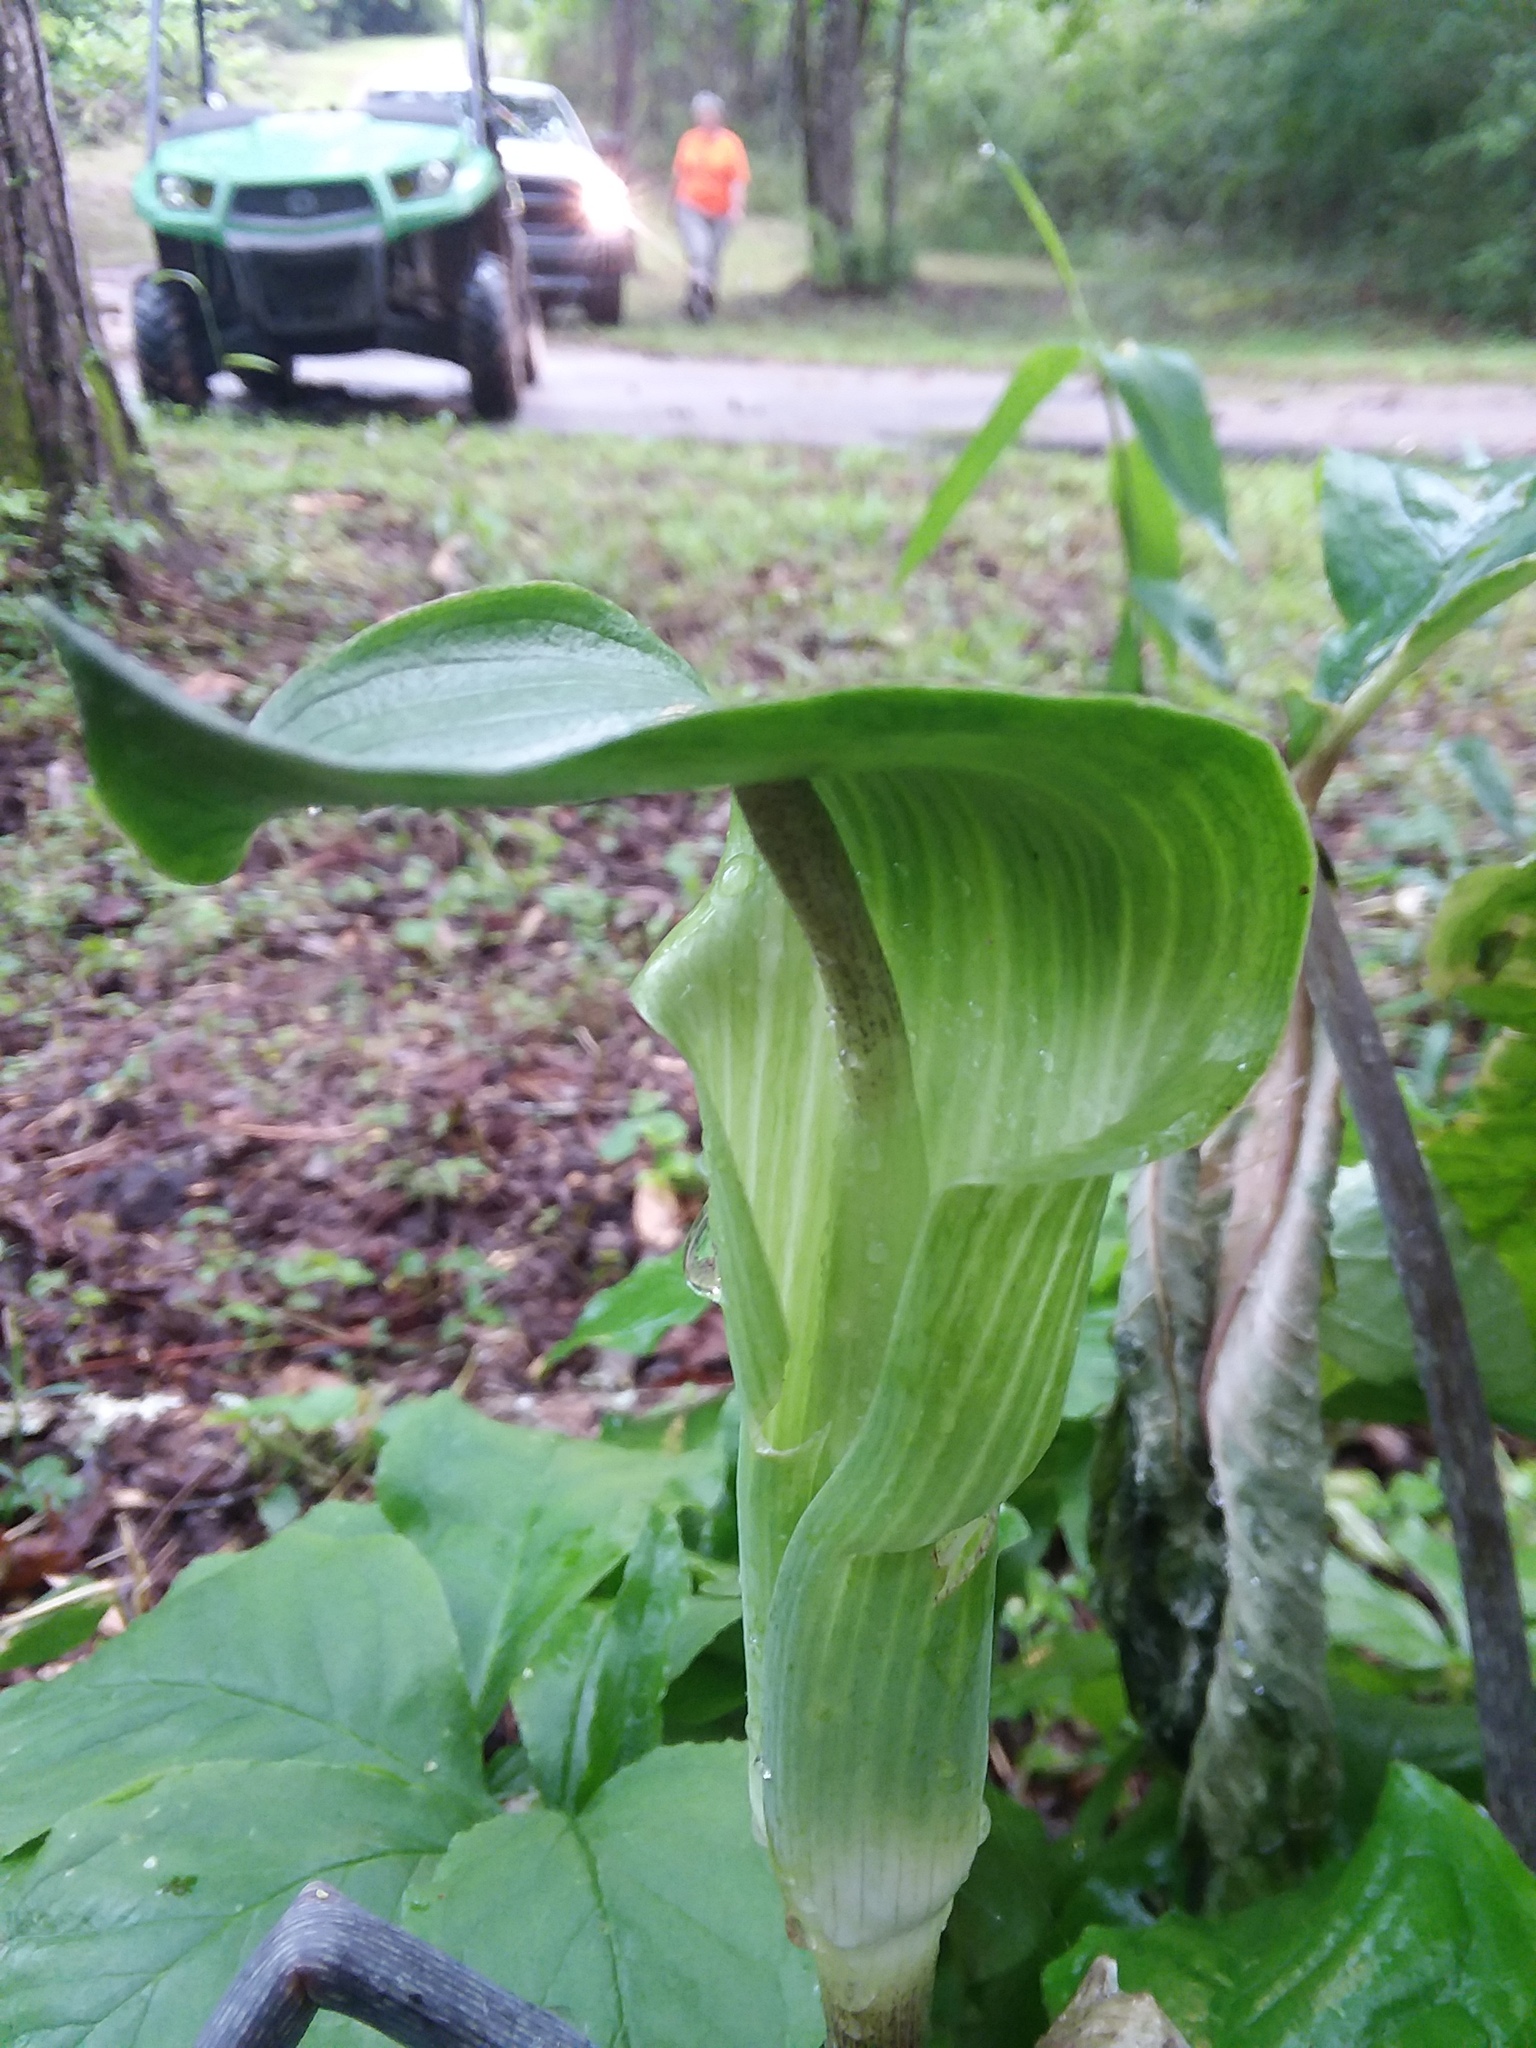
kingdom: Plantae
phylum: Tracheophyta
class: Liliopsida
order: Alismatales
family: Araceae
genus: Arisaema
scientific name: Arisaema quinatum
